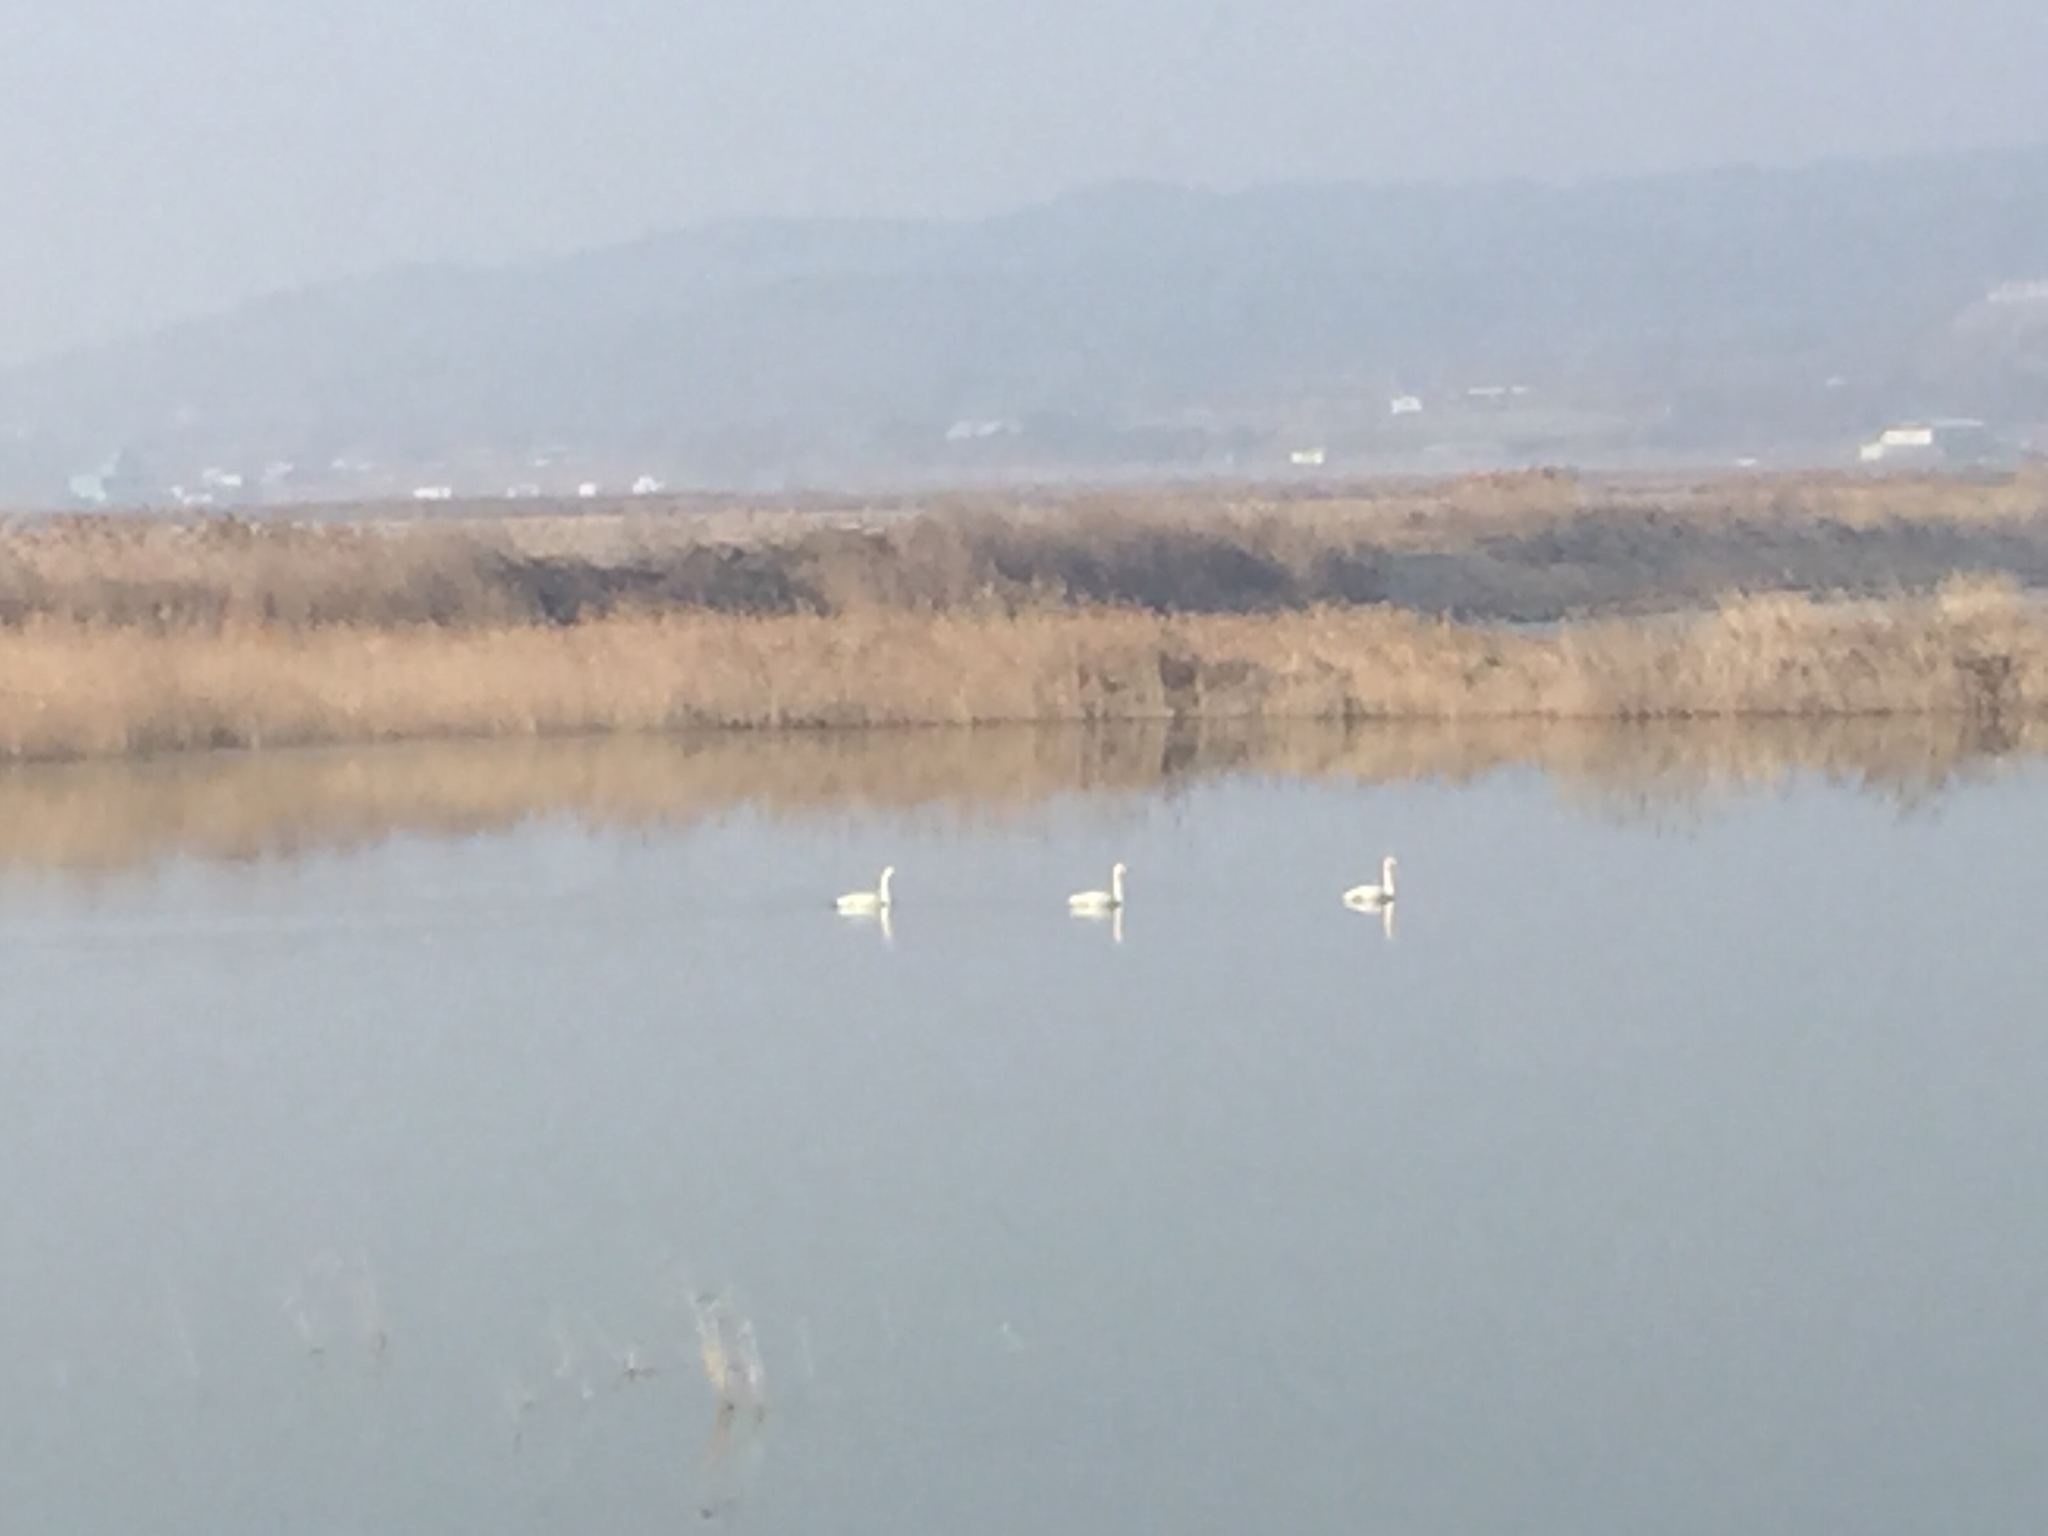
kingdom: Animalia
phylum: Chordata
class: Aves
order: Anseriformes
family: Anatidae
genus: Cygnus
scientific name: Cygnus cygnus
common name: Whooper swan
